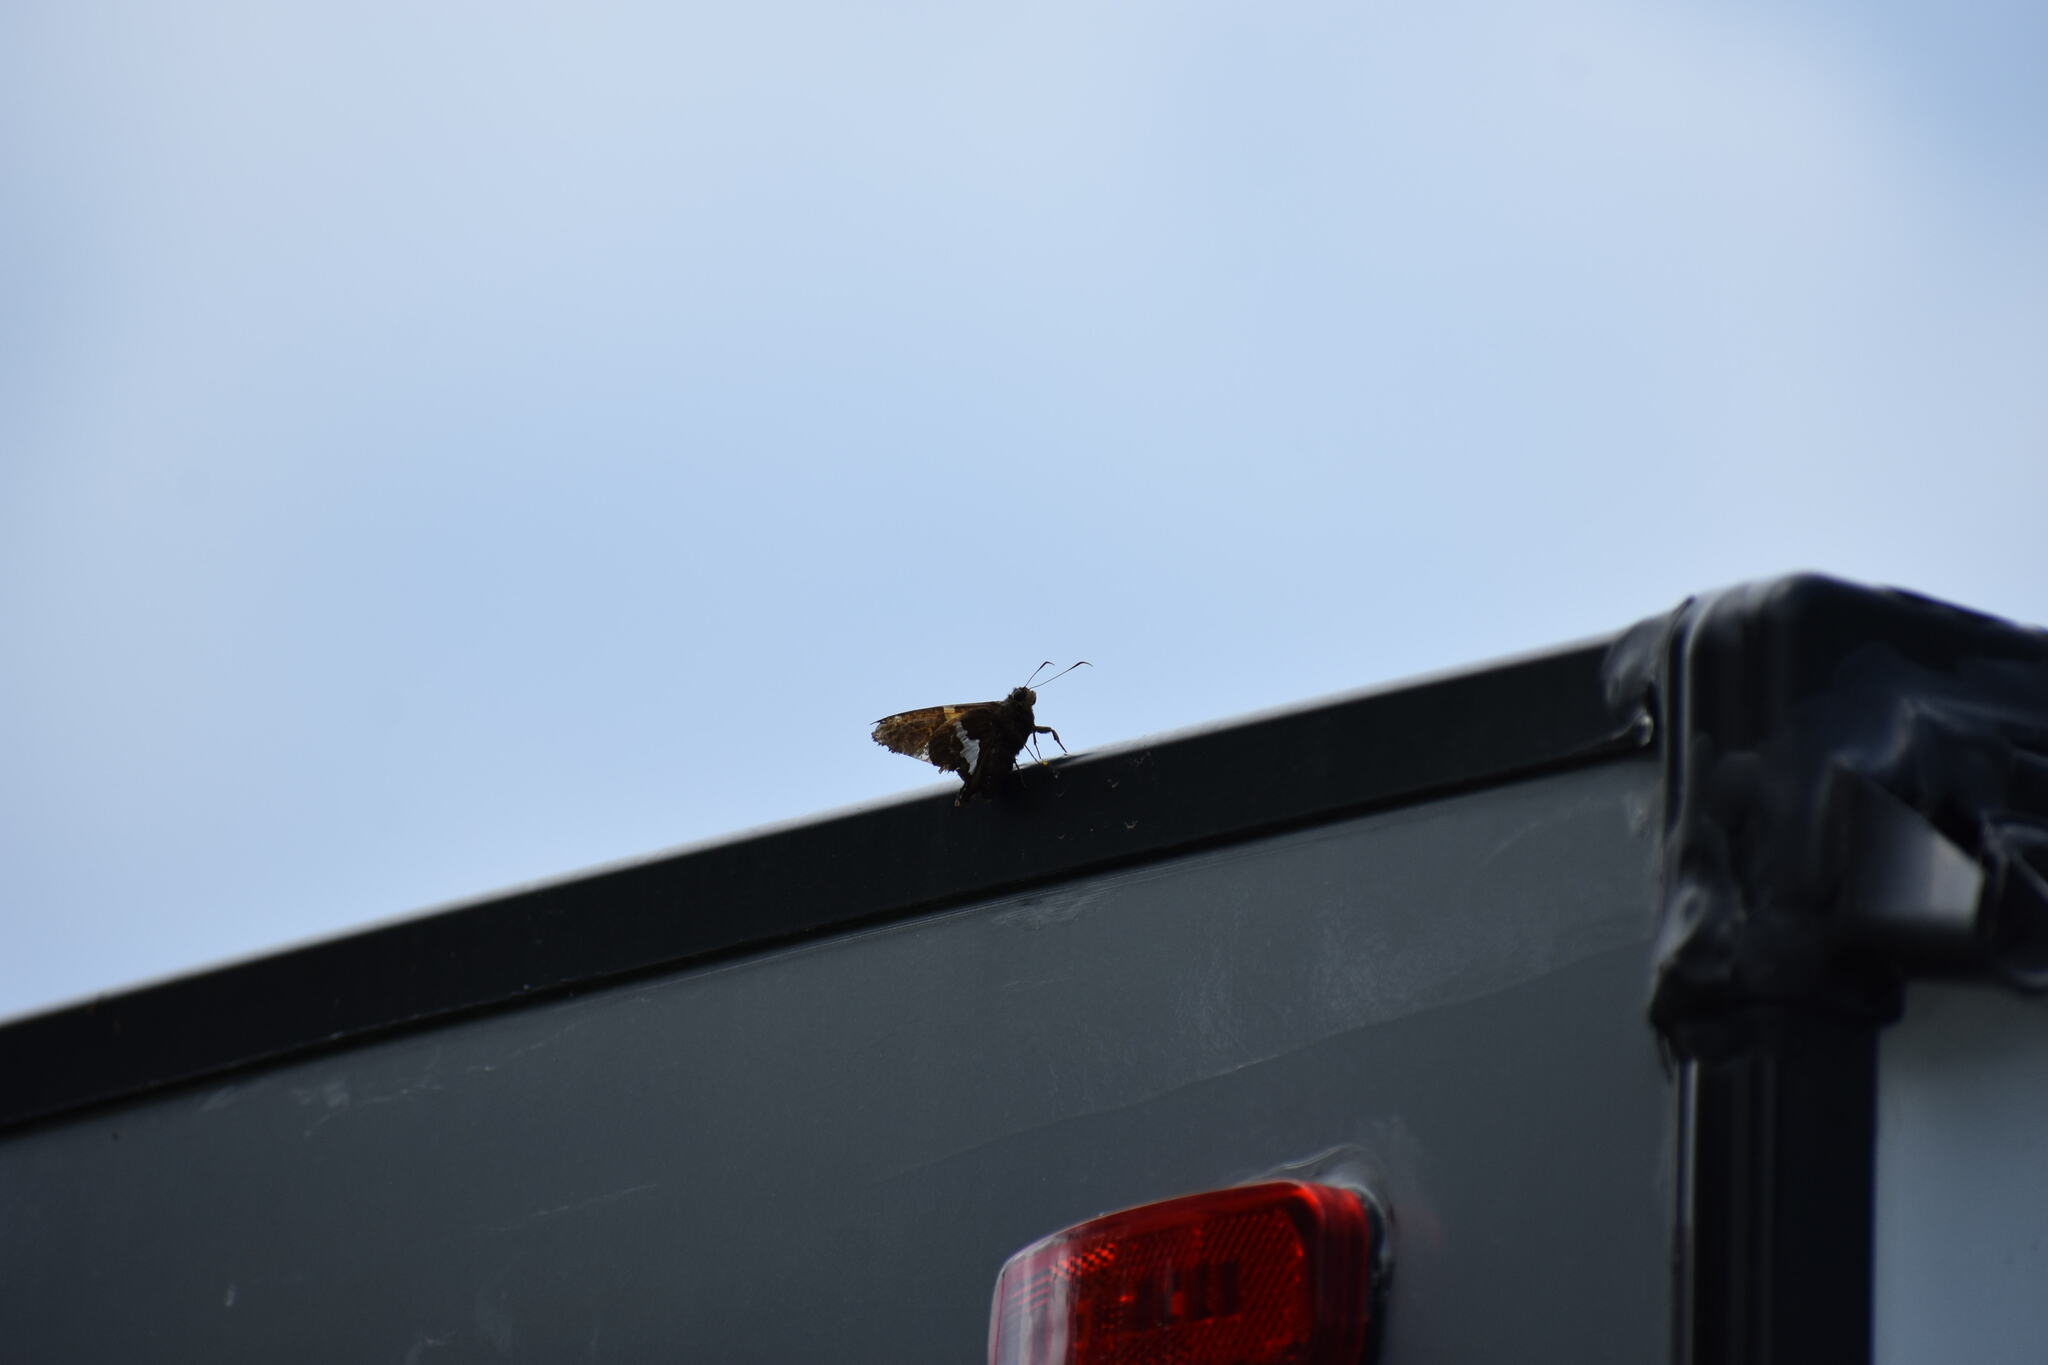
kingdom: Animalia
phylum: Arthropoda
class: Insecta
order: Lepidoptera
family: Hesperiidae
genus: Epargyreus
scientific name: Epargyreus clarus
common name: Silver-spotted skipper
